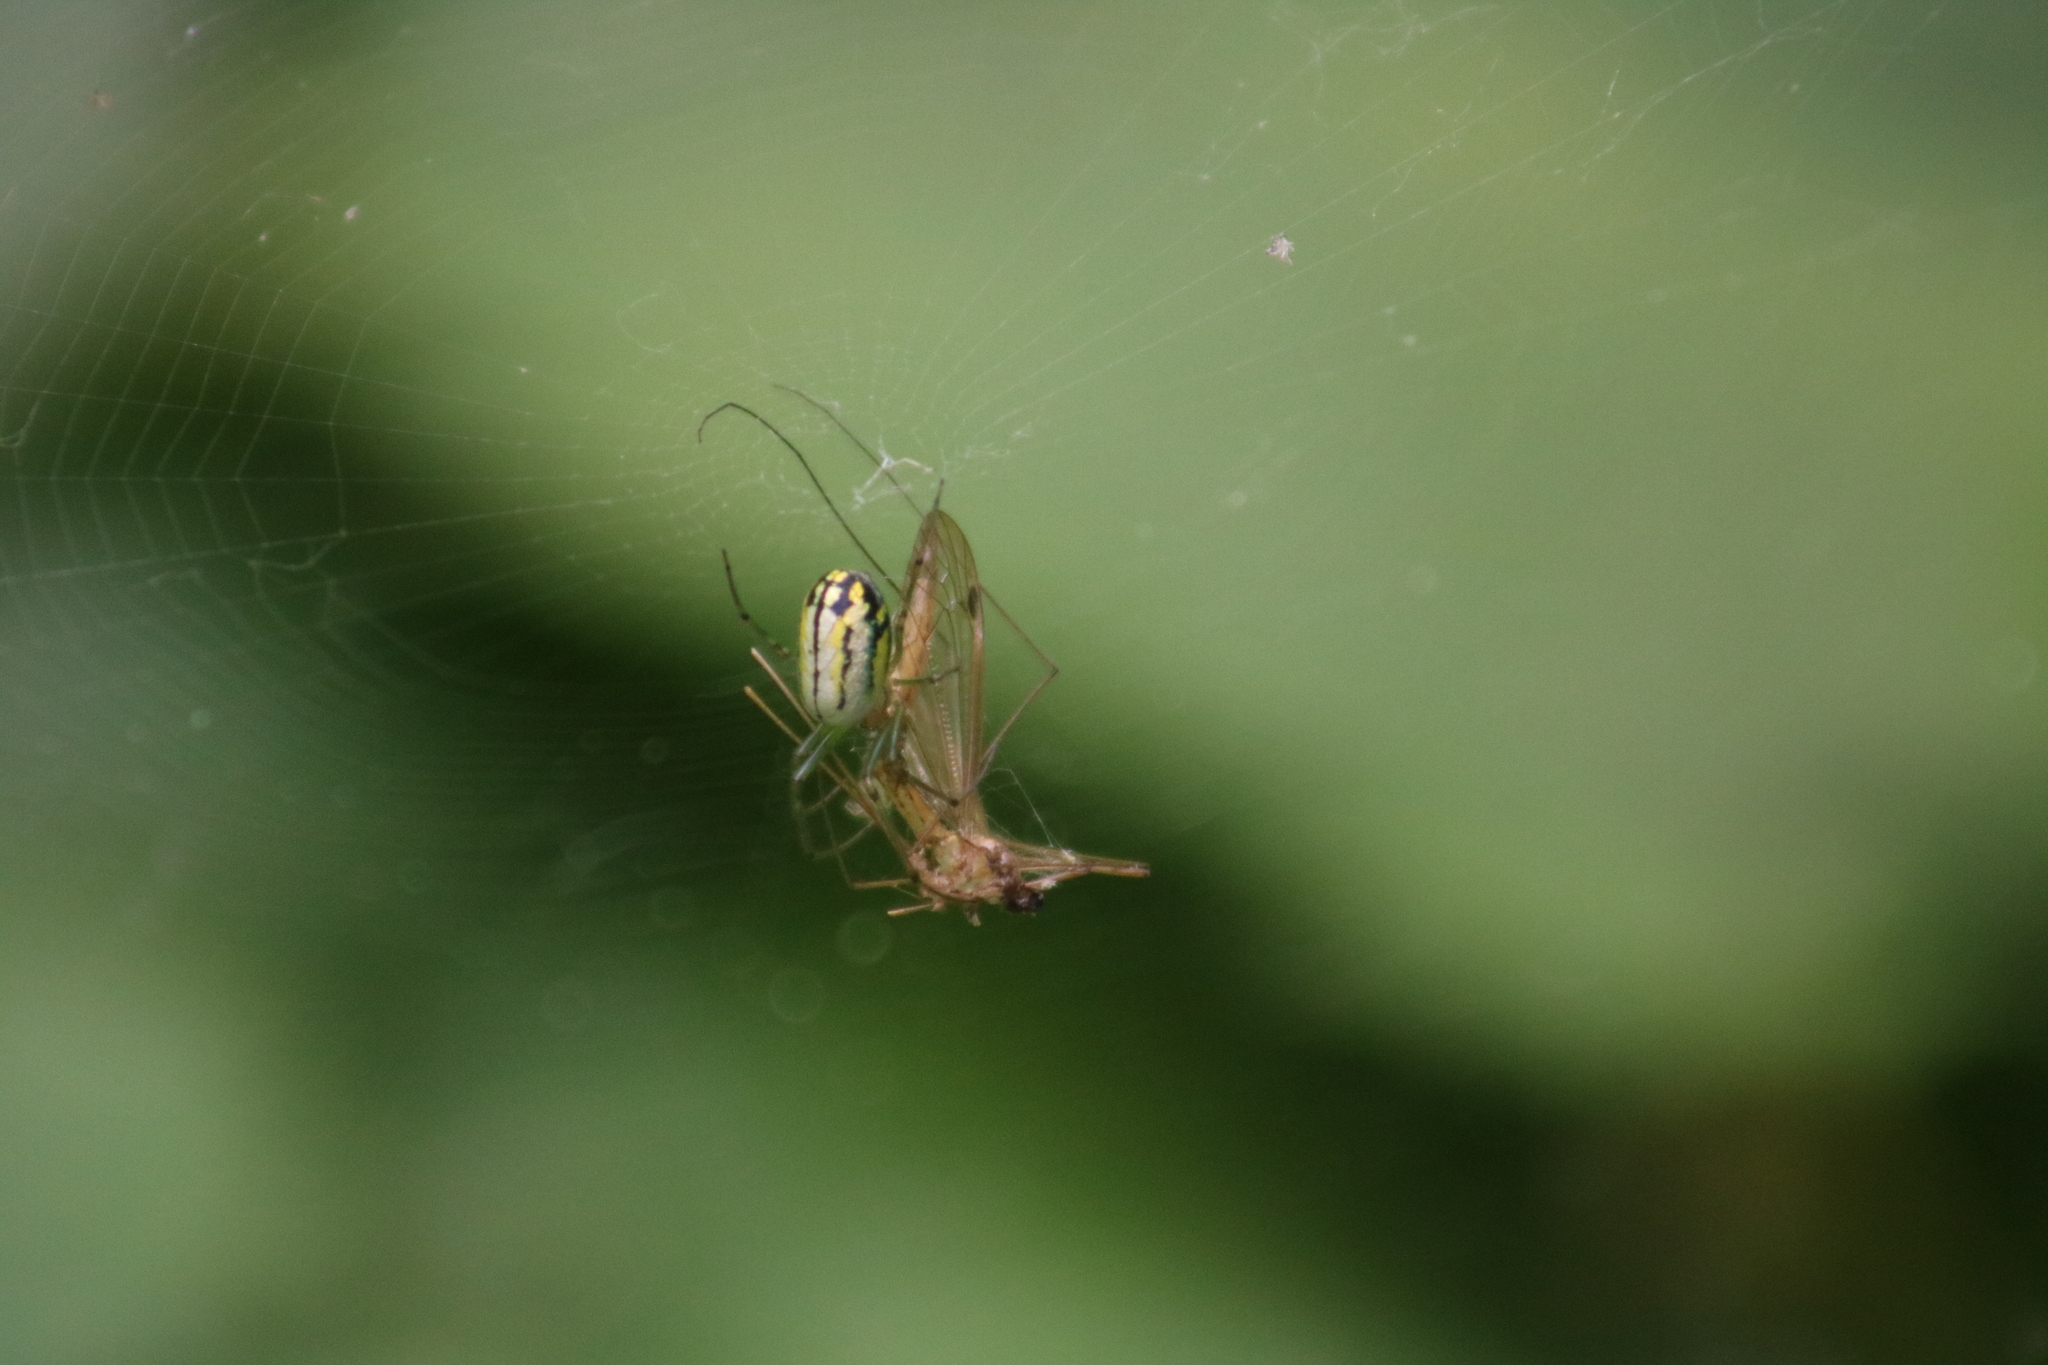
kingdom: Animalia
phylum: Arthropoda
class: Arachnida
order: Araneae
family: Tetragnathidae
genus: Leucauge
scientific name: Leucauge venusta
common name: Longjawed orb weavers
